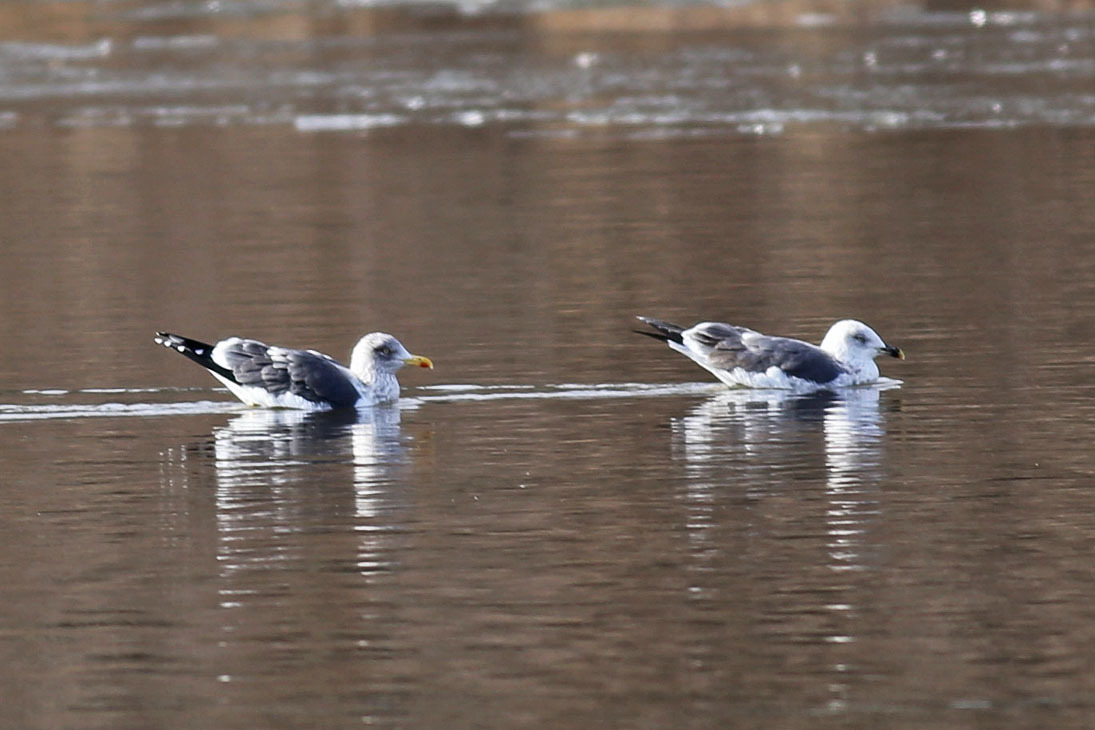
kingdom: Animalia
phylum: Chordata
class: Aves
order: Charadriiformes
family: Laridae
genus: Larus
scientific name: Larus fuscus
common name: Lesser black-backed gull
